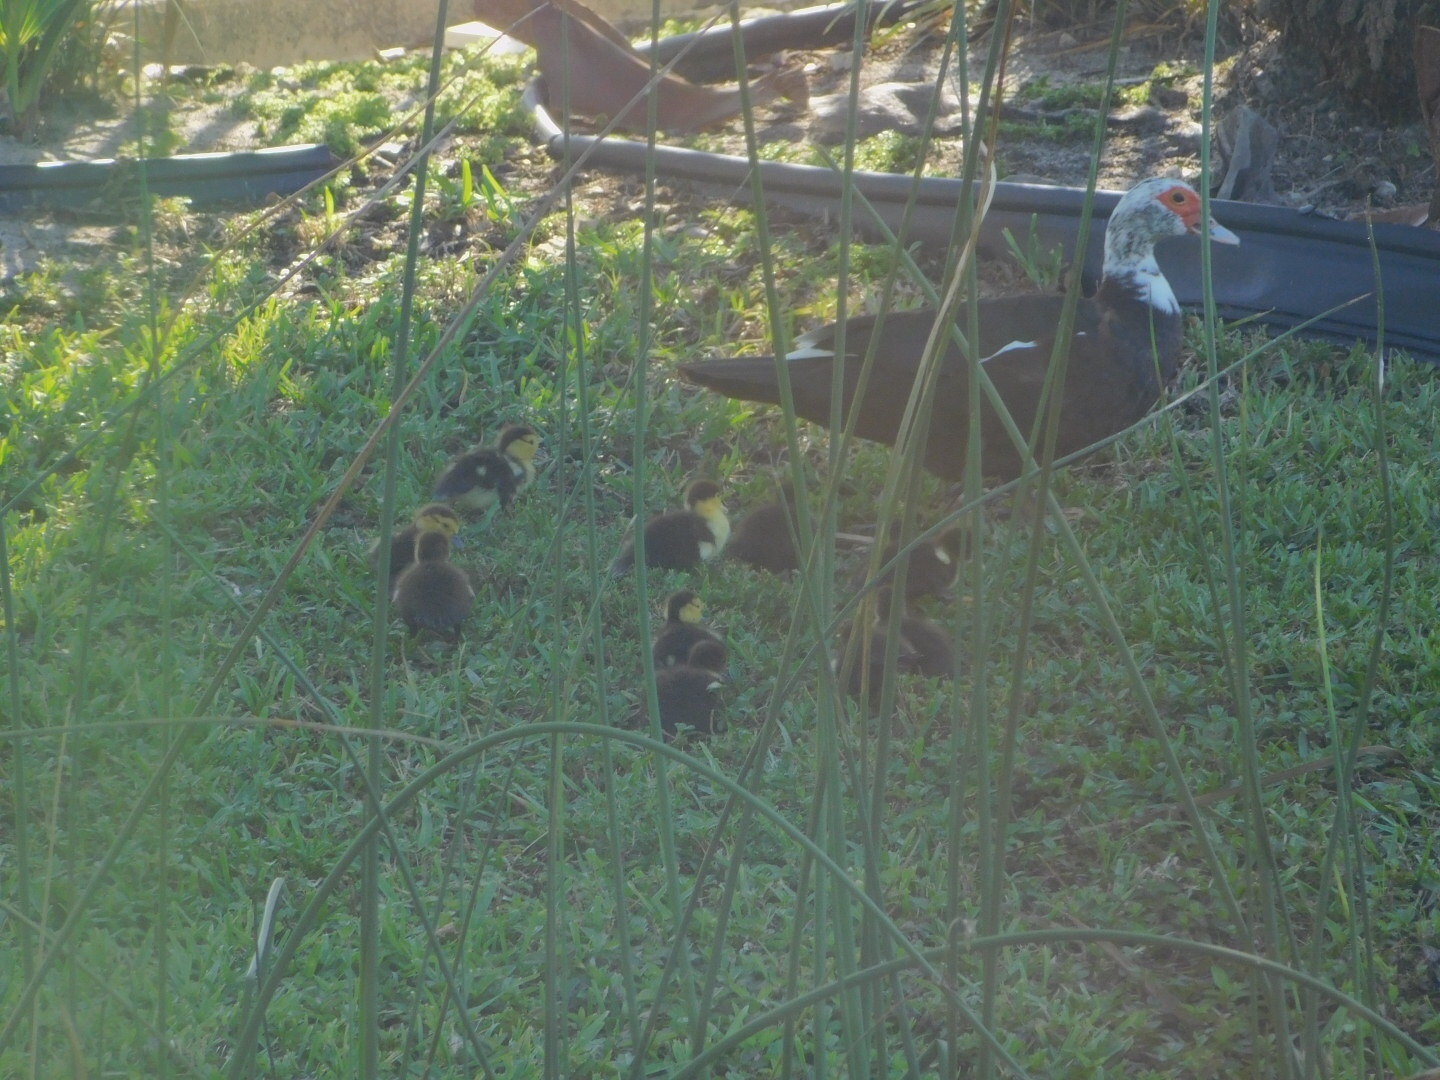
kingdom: Animalia
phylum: Chordata
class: Aves
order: Anseriformes
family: Anatidae
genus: Cairina
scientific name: Cairina moschata
